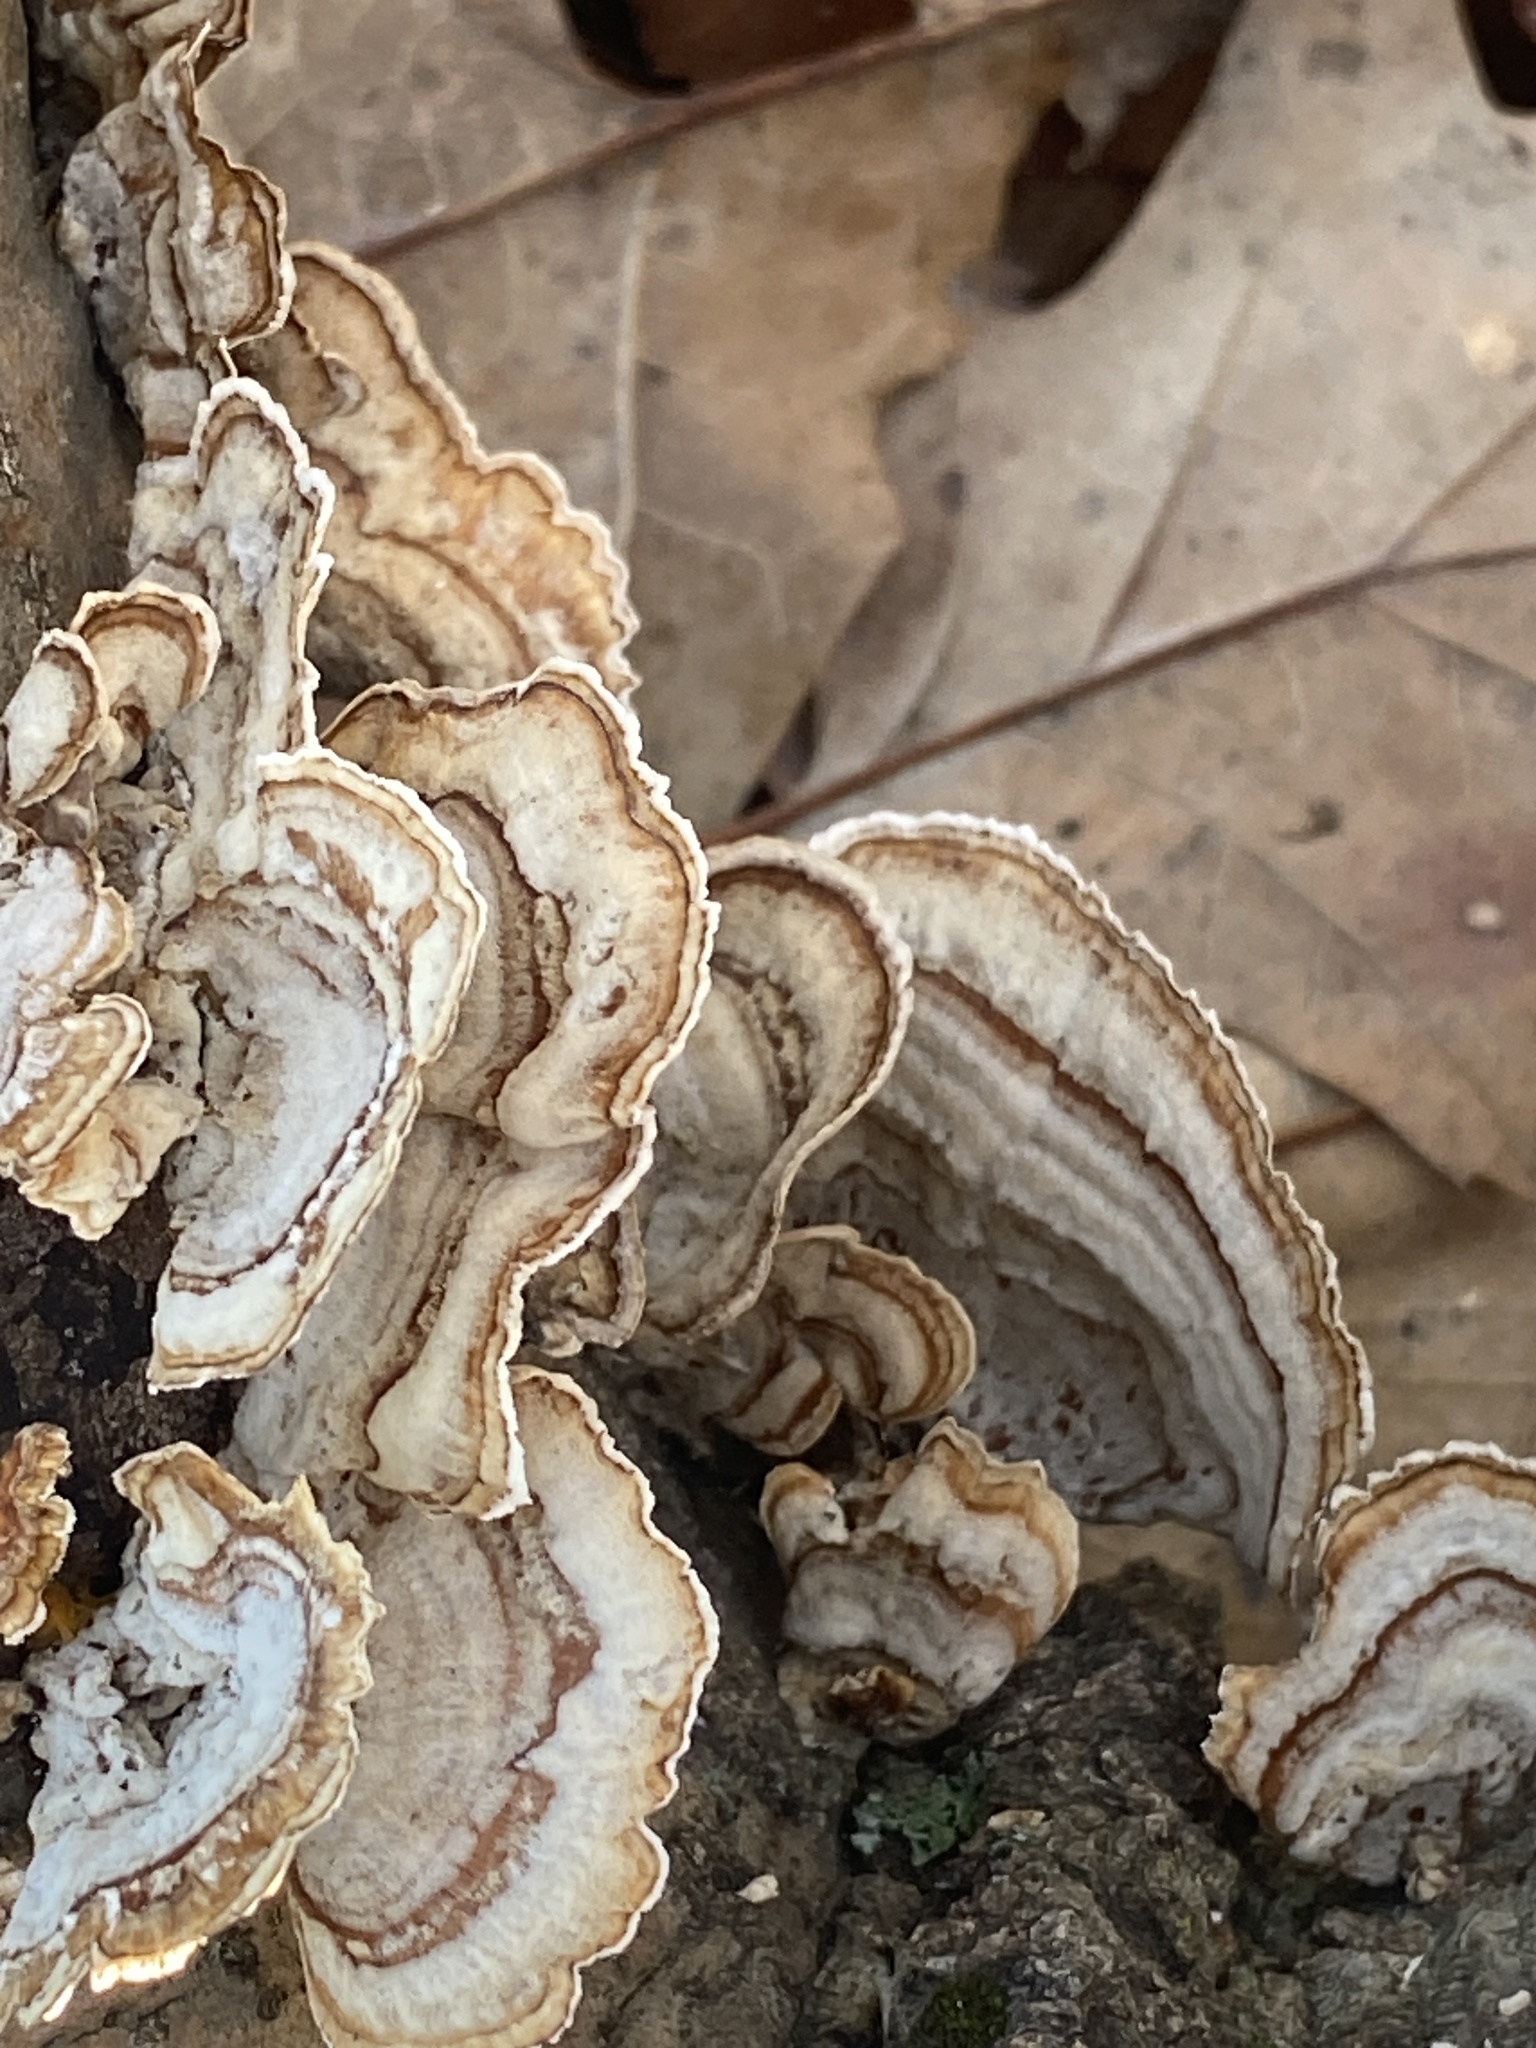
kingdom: Fungi
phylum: Basidiomycota
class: Agaricomycetes
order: Russulales
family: Stereaceae
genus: Stereum
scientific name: Stereum lobatum
